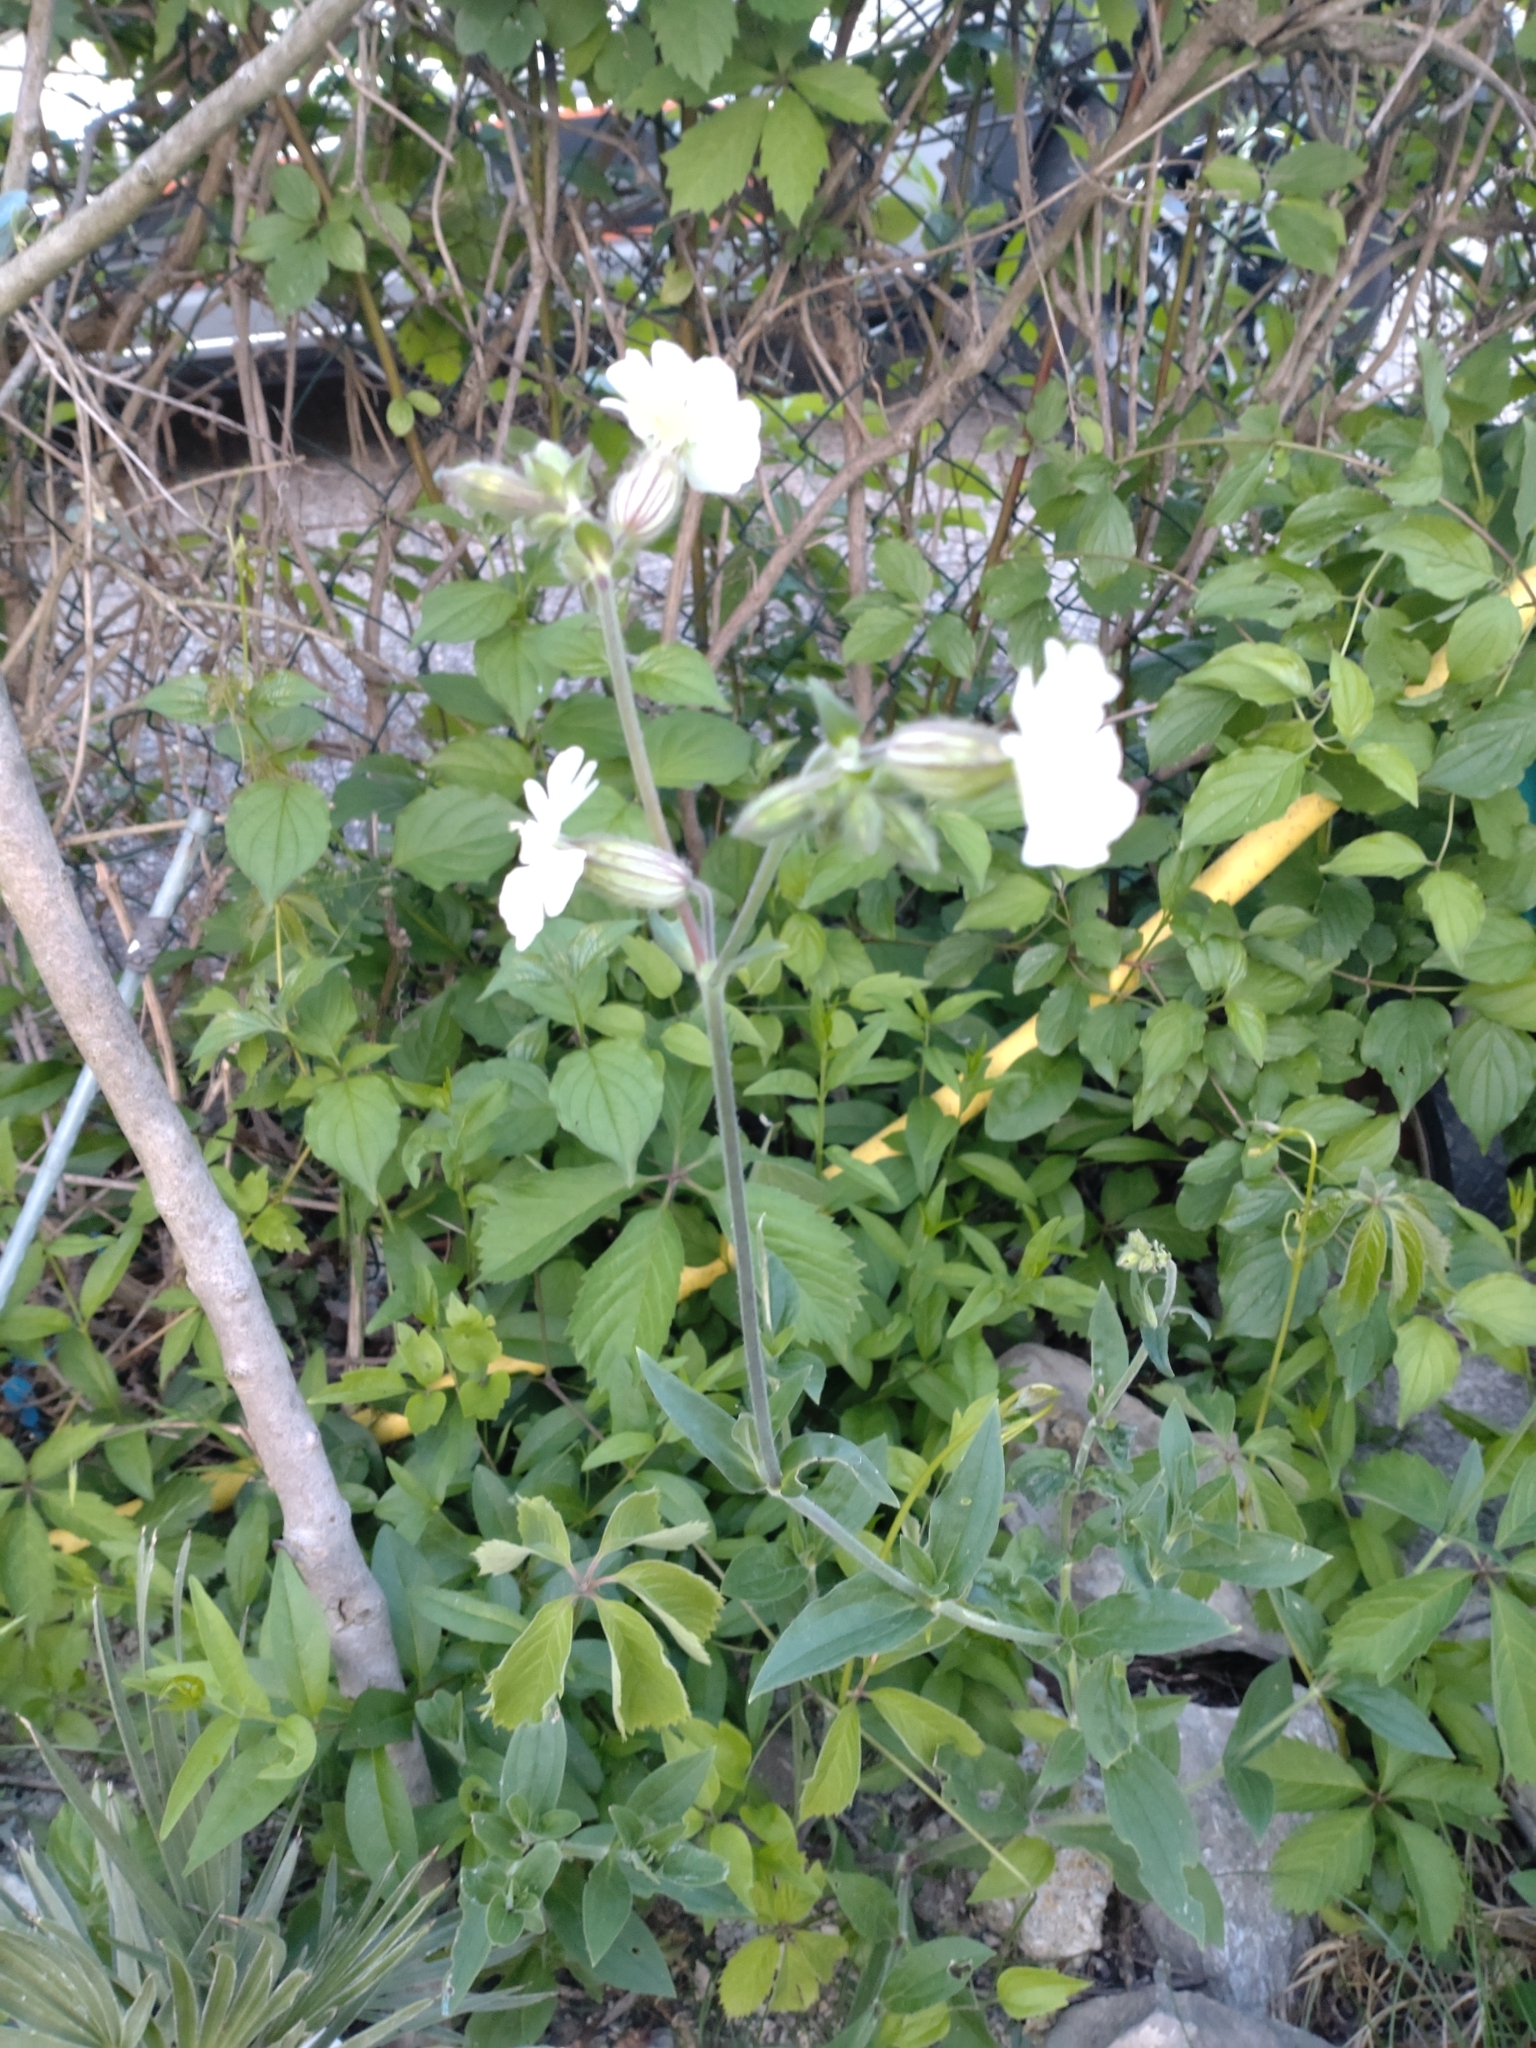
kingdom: Plantae
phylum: Tracheophyta
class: Magnoliopsida
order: Caryophyllales
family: Caryophyllaceae
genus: Silene
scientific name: Silene latifolia
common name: White campion
